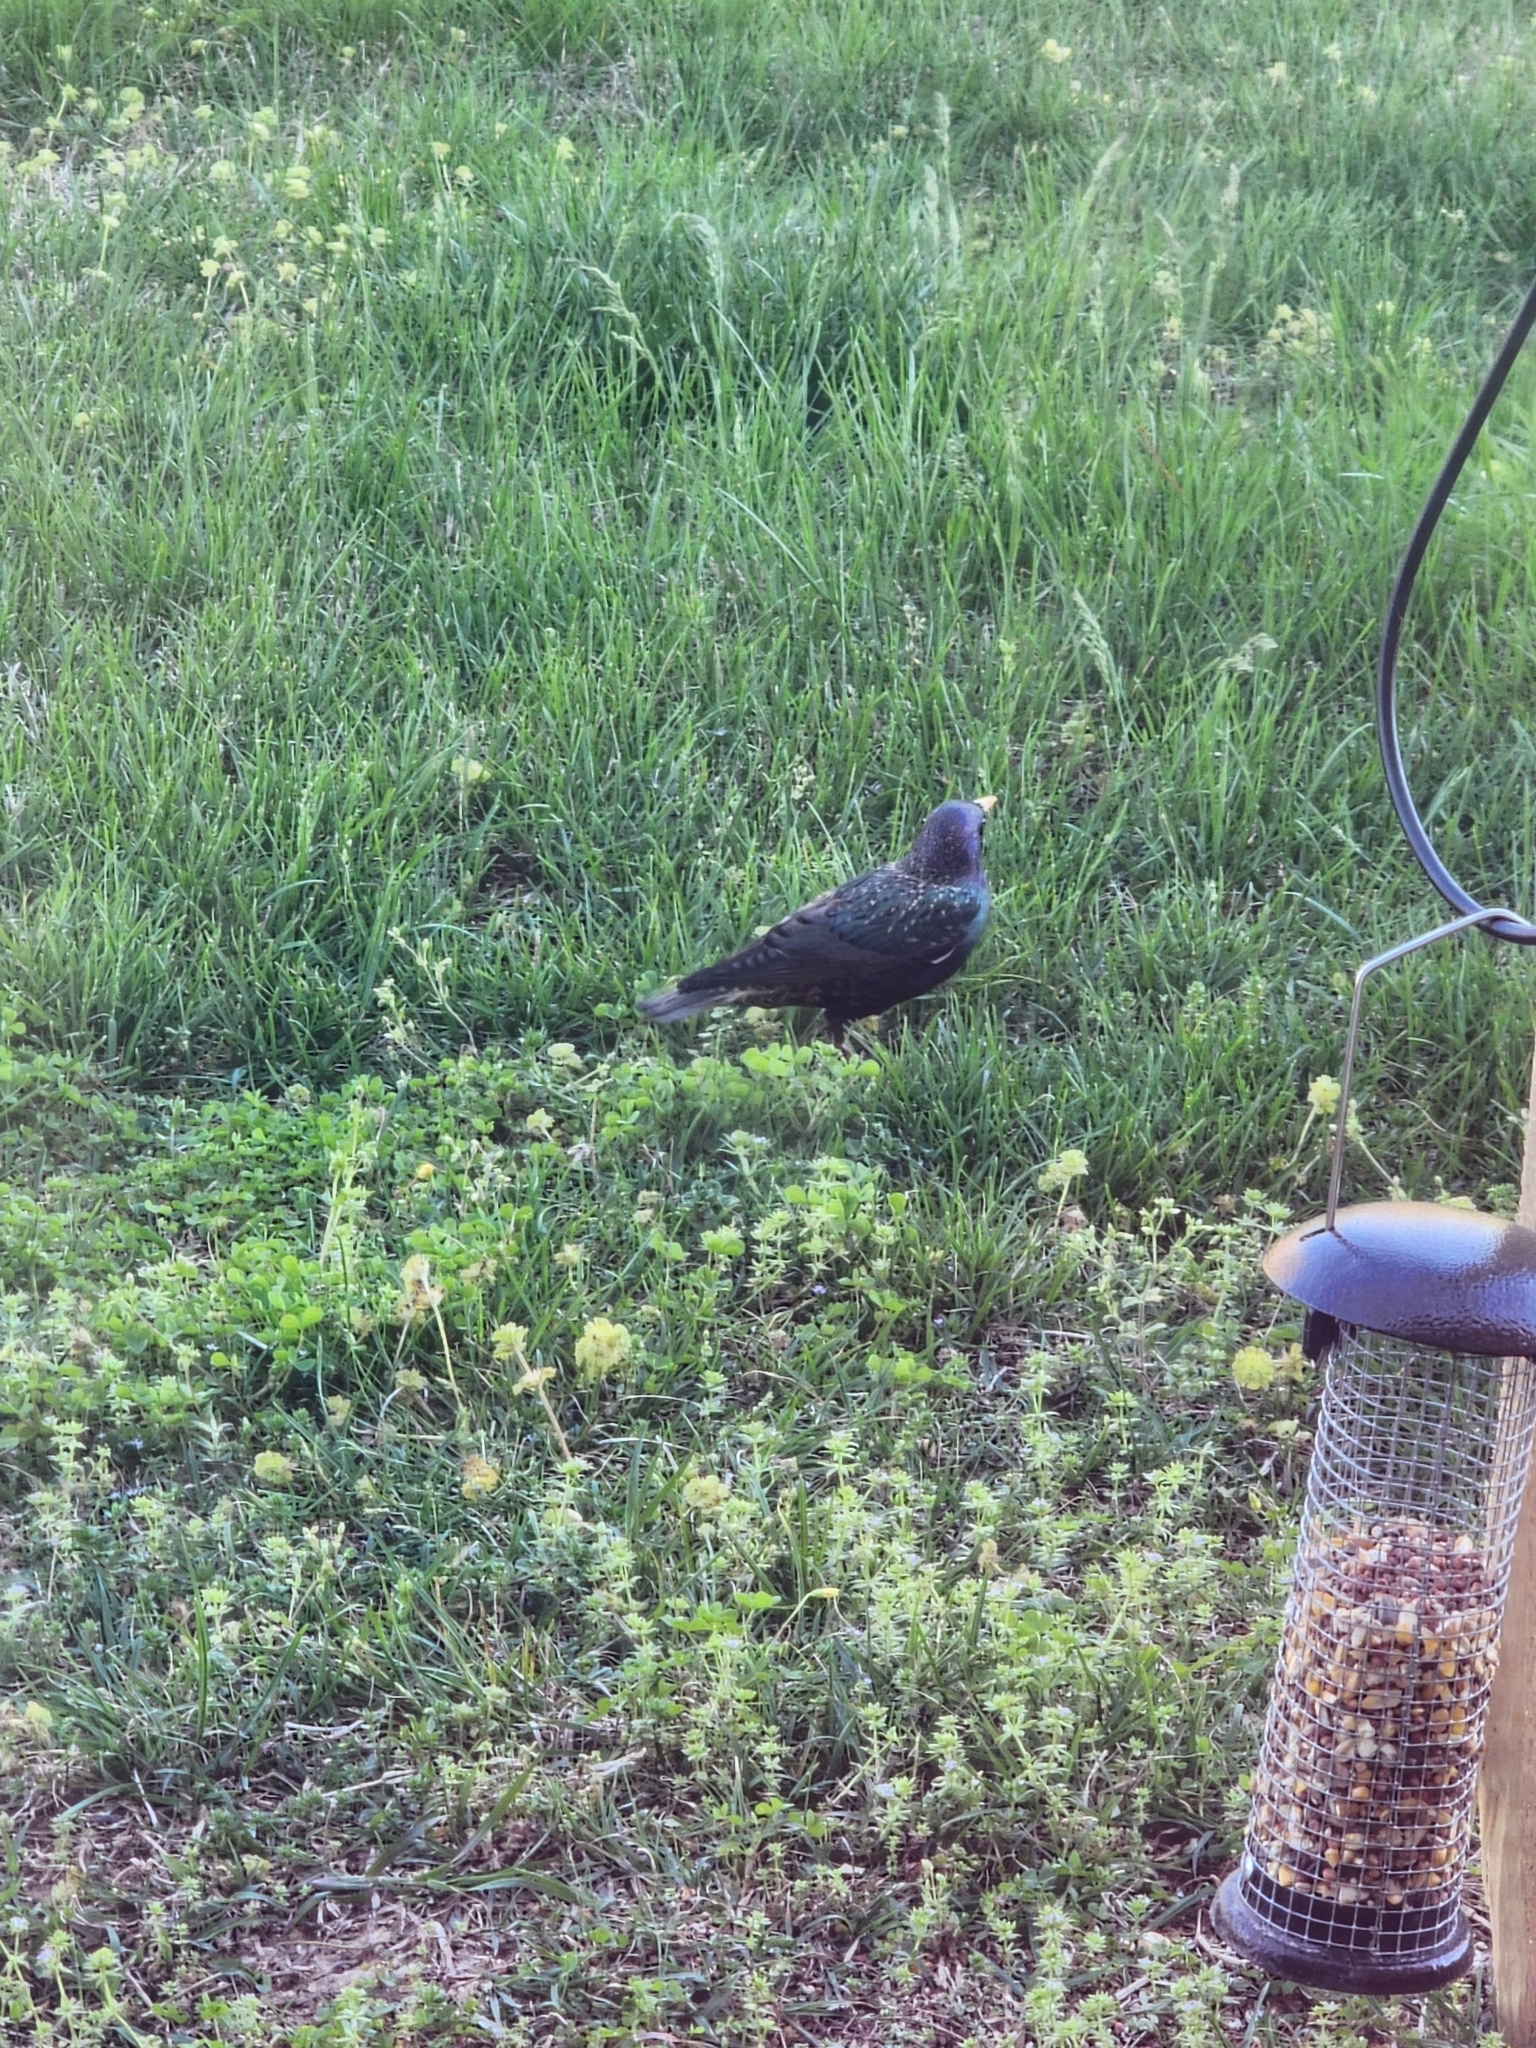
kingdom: Animalia
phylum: Chordata
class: Aves
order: Passeriformes
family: Sturnidae
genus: Sturnus
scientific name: Sturnus vulgaris
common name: Common starling
